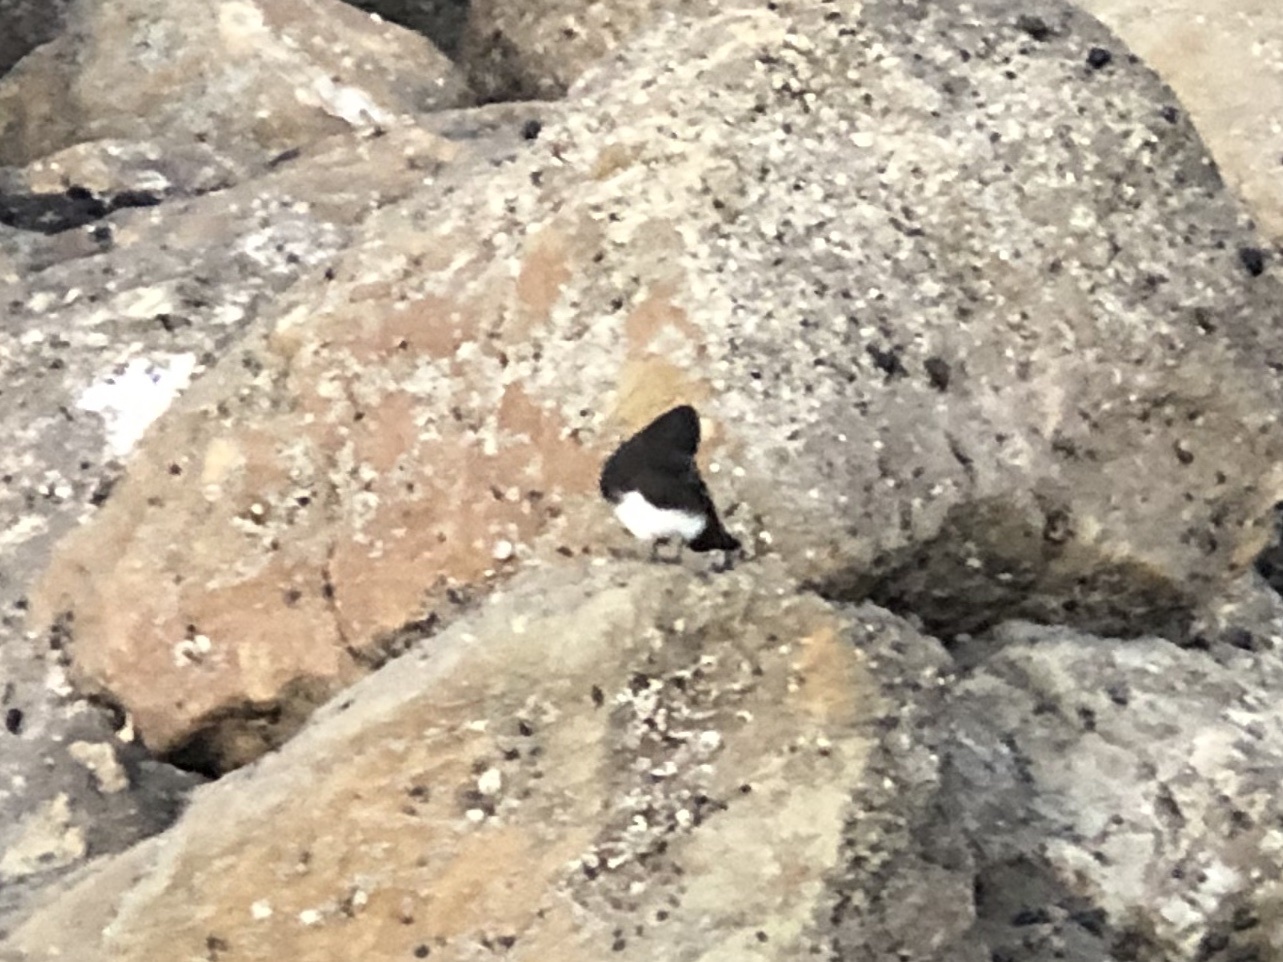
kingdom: Animalia
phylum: Chordata
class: Aves
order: Passeriformes
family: Tyrannidae
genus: Sayornis
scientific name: Sayornis nigricans
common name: Black phoebe
